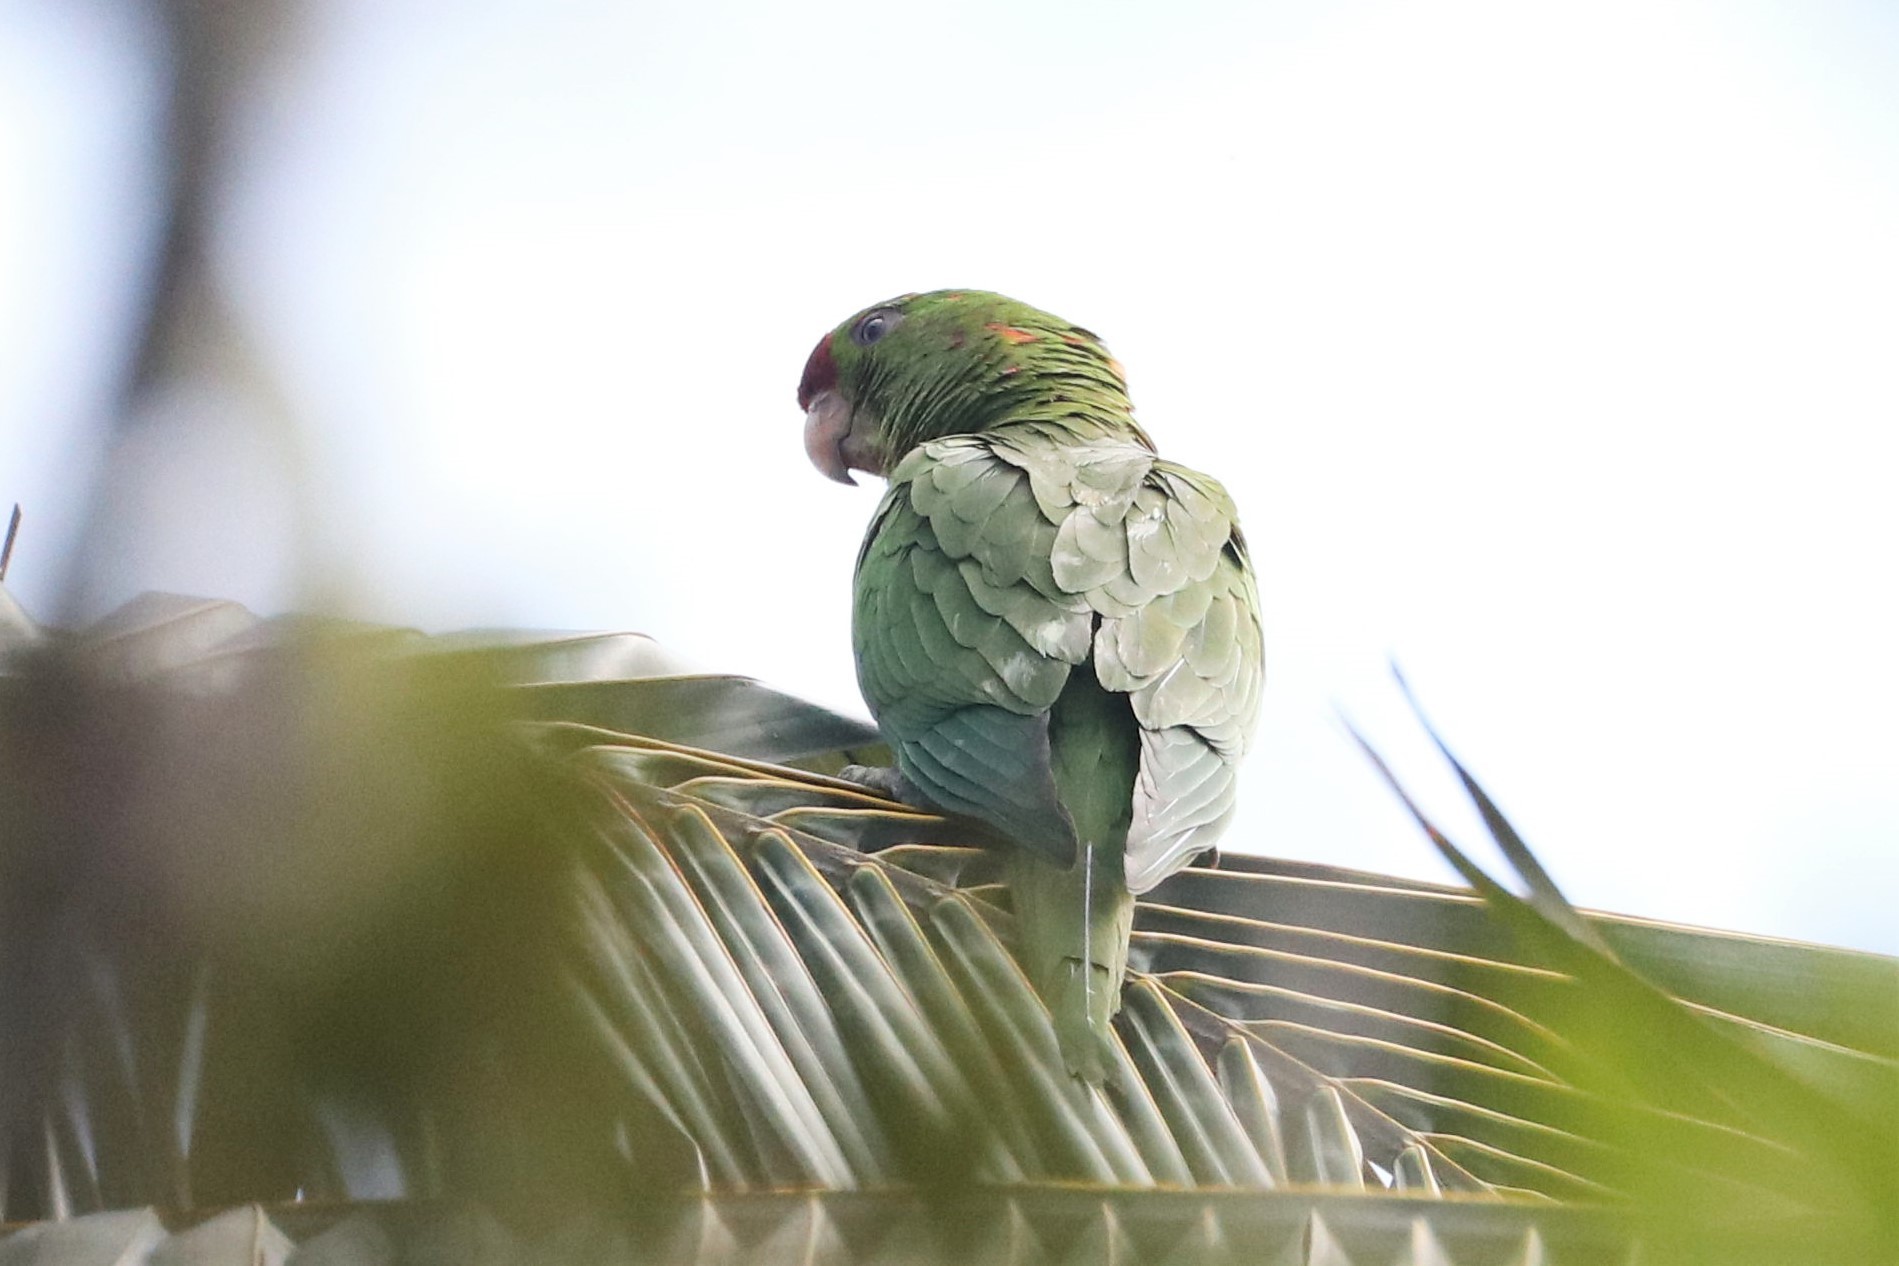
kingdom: Animalia
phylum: Chordata
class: Aves
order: Psittaciformes
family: Psittacidae
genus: Aratinga
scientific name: Aratinga wagleri
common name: Scarlet-fronted parakeet
